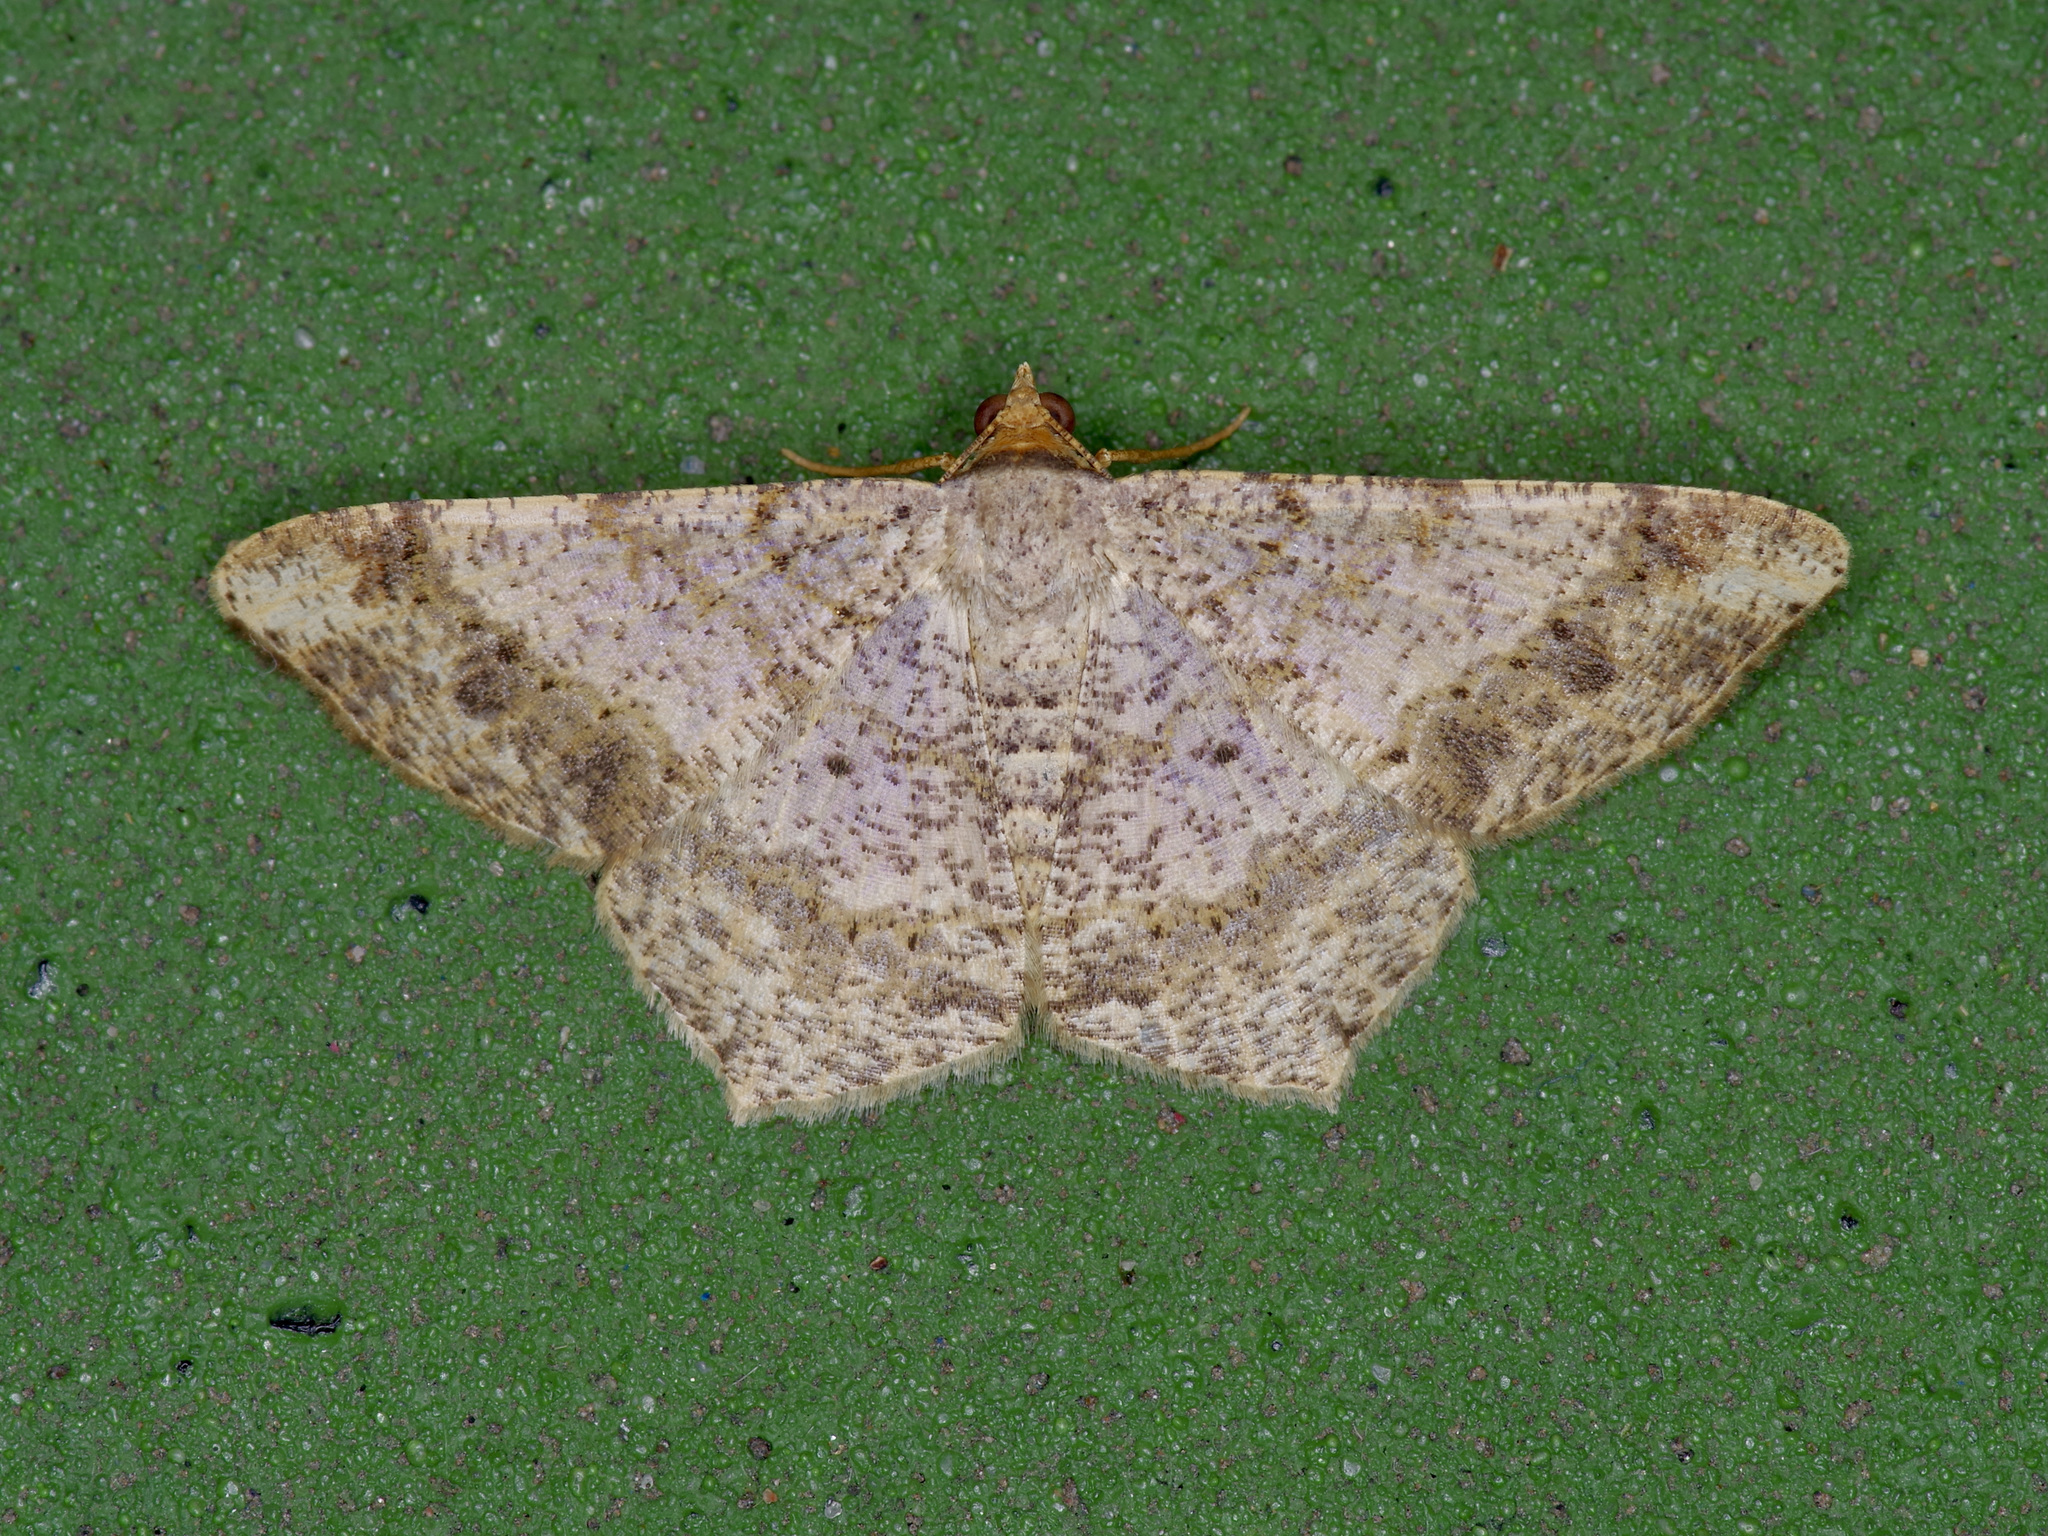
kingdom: Animalia
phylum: Arthropoda
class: Insecta
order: Lepidoptera
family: Geometridae
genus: Macaria
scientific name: Macaria abydata
